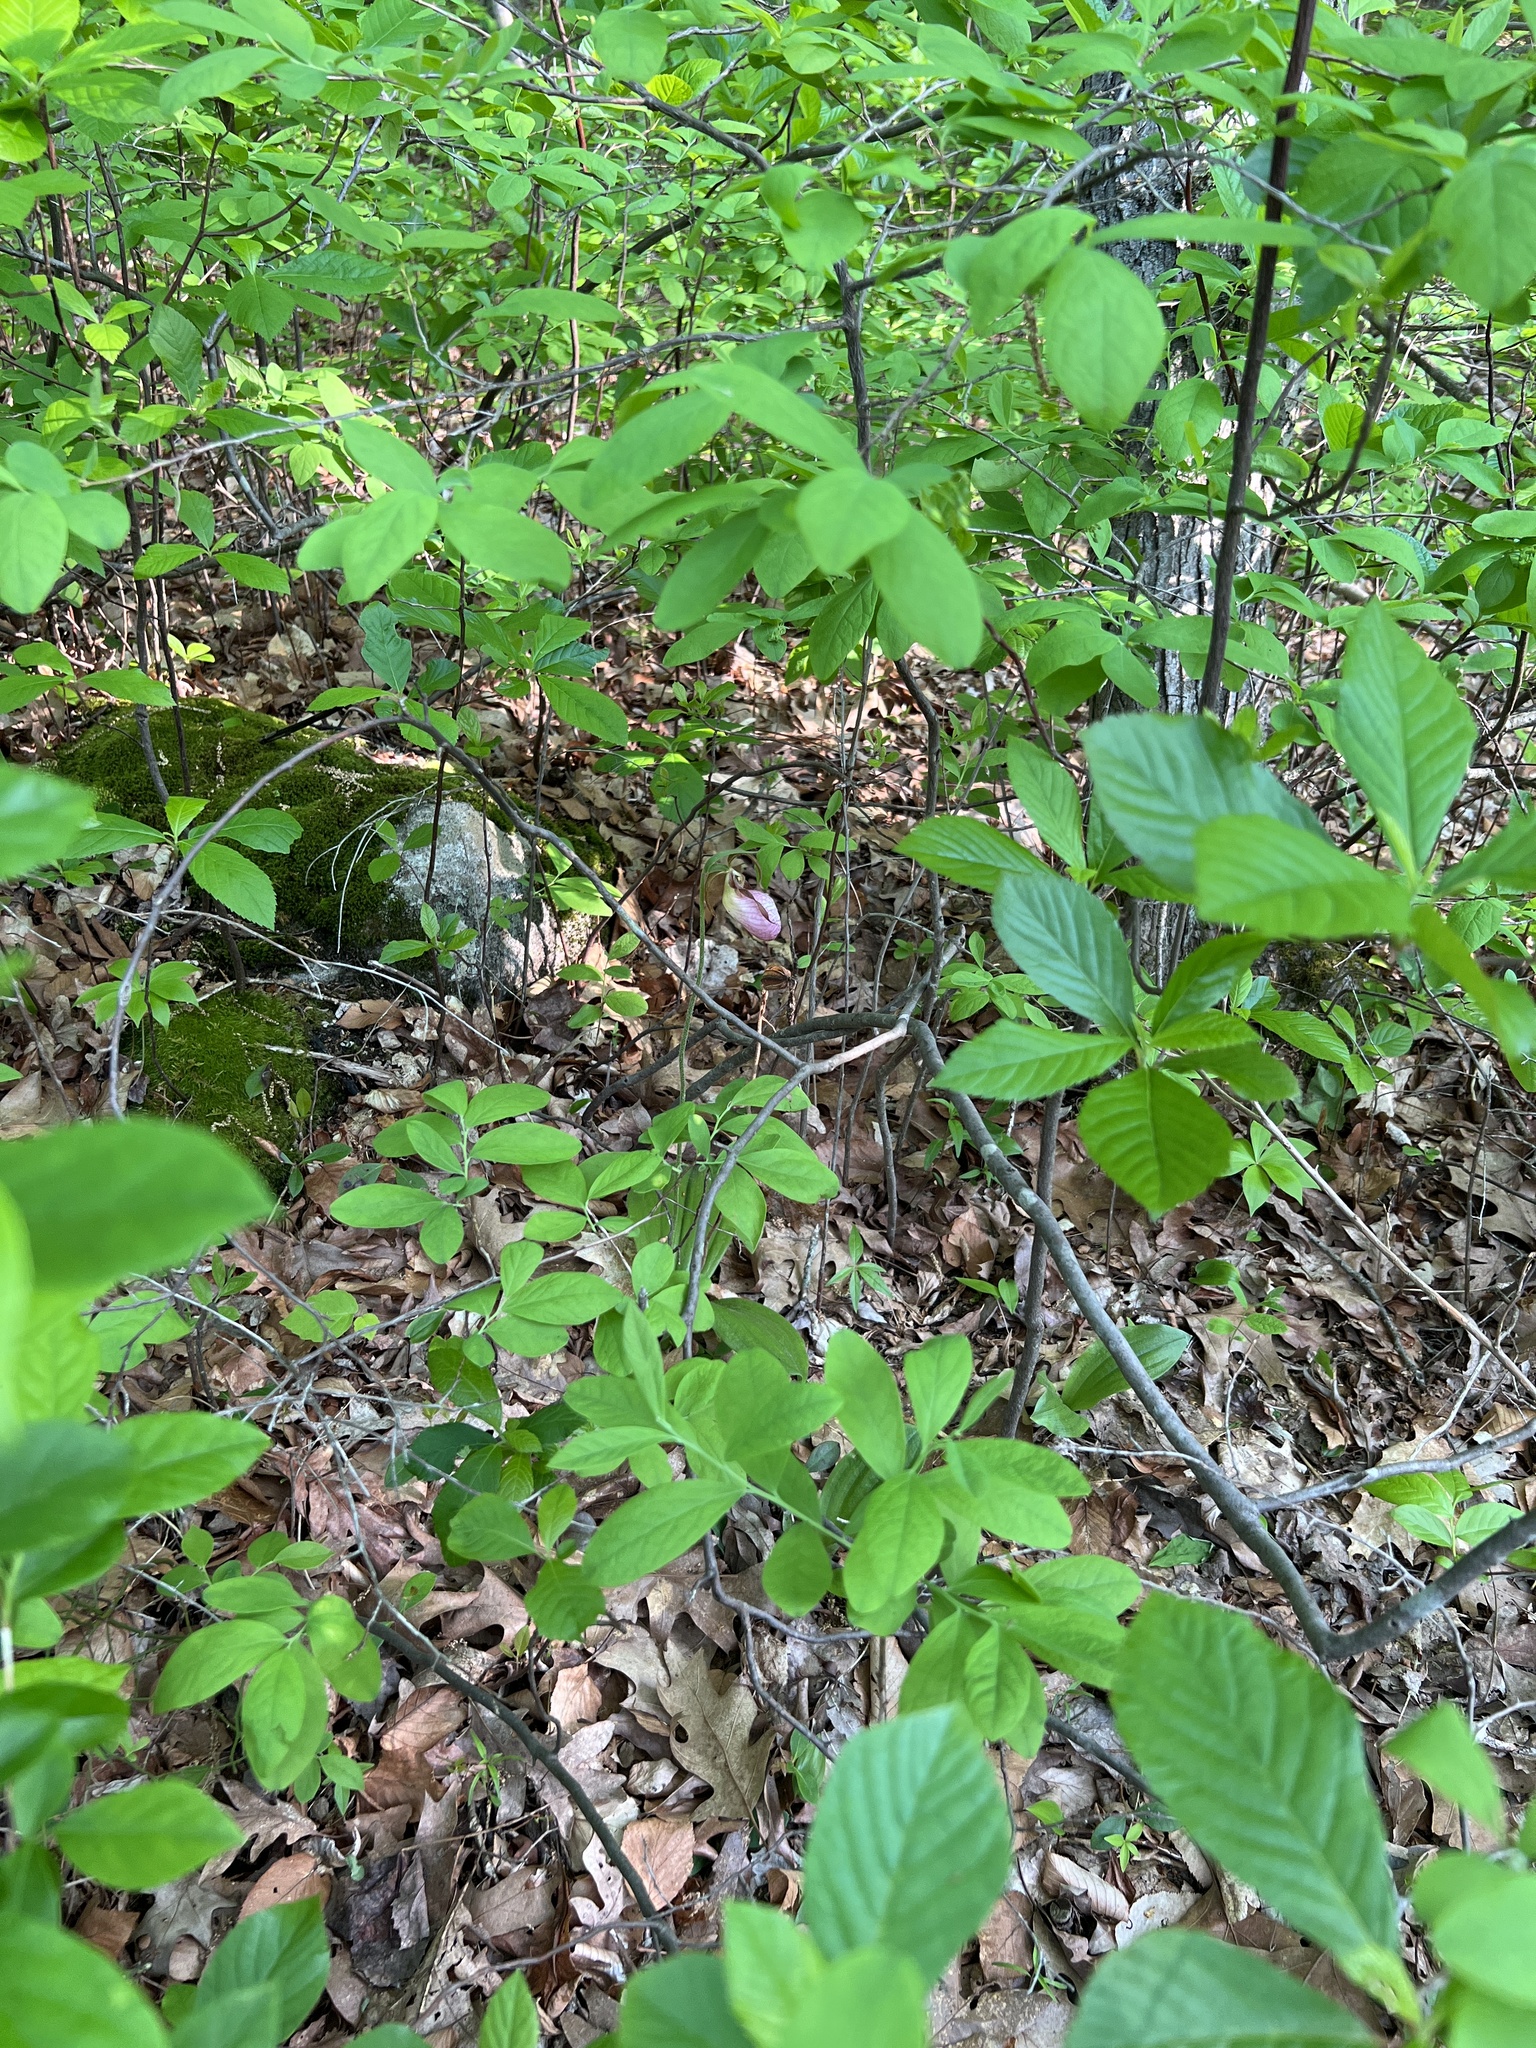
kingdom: Plantae
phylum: Tracheophyta
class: Liliopsida
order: Asparagales
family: Orchidaceae
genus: Cypripedium
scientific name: Cypripedium acaule
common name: Pink lady's-slipper
